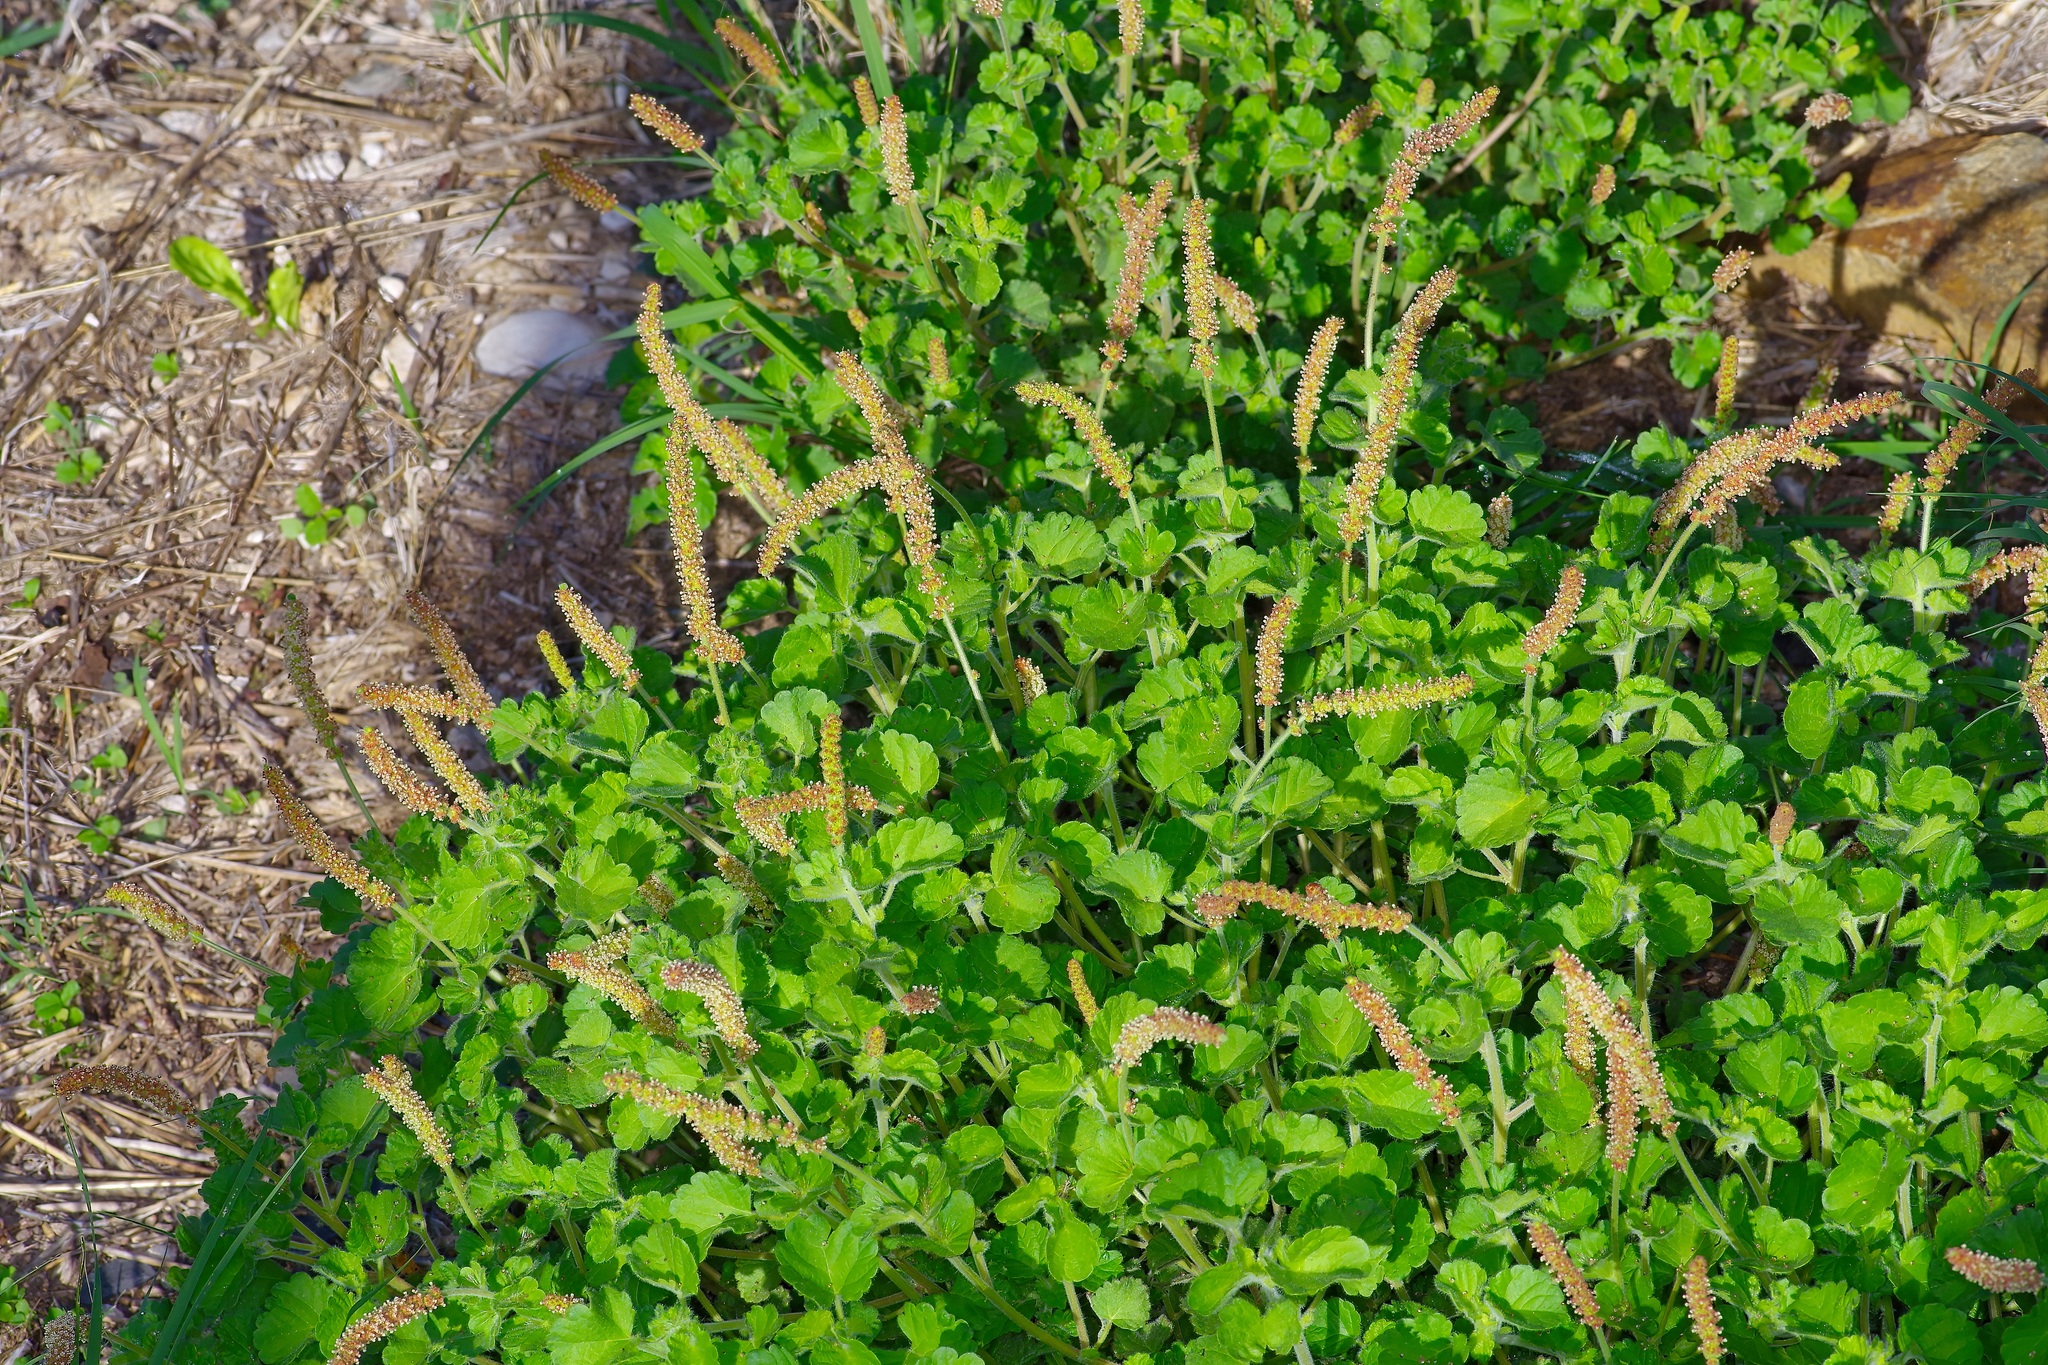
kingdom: Plantae
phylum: Tracheophyta
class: Magnoliopsida
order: Malpighiales
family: Euphorbiaceae
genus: Acalypha
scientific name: Acalypha monostachya
